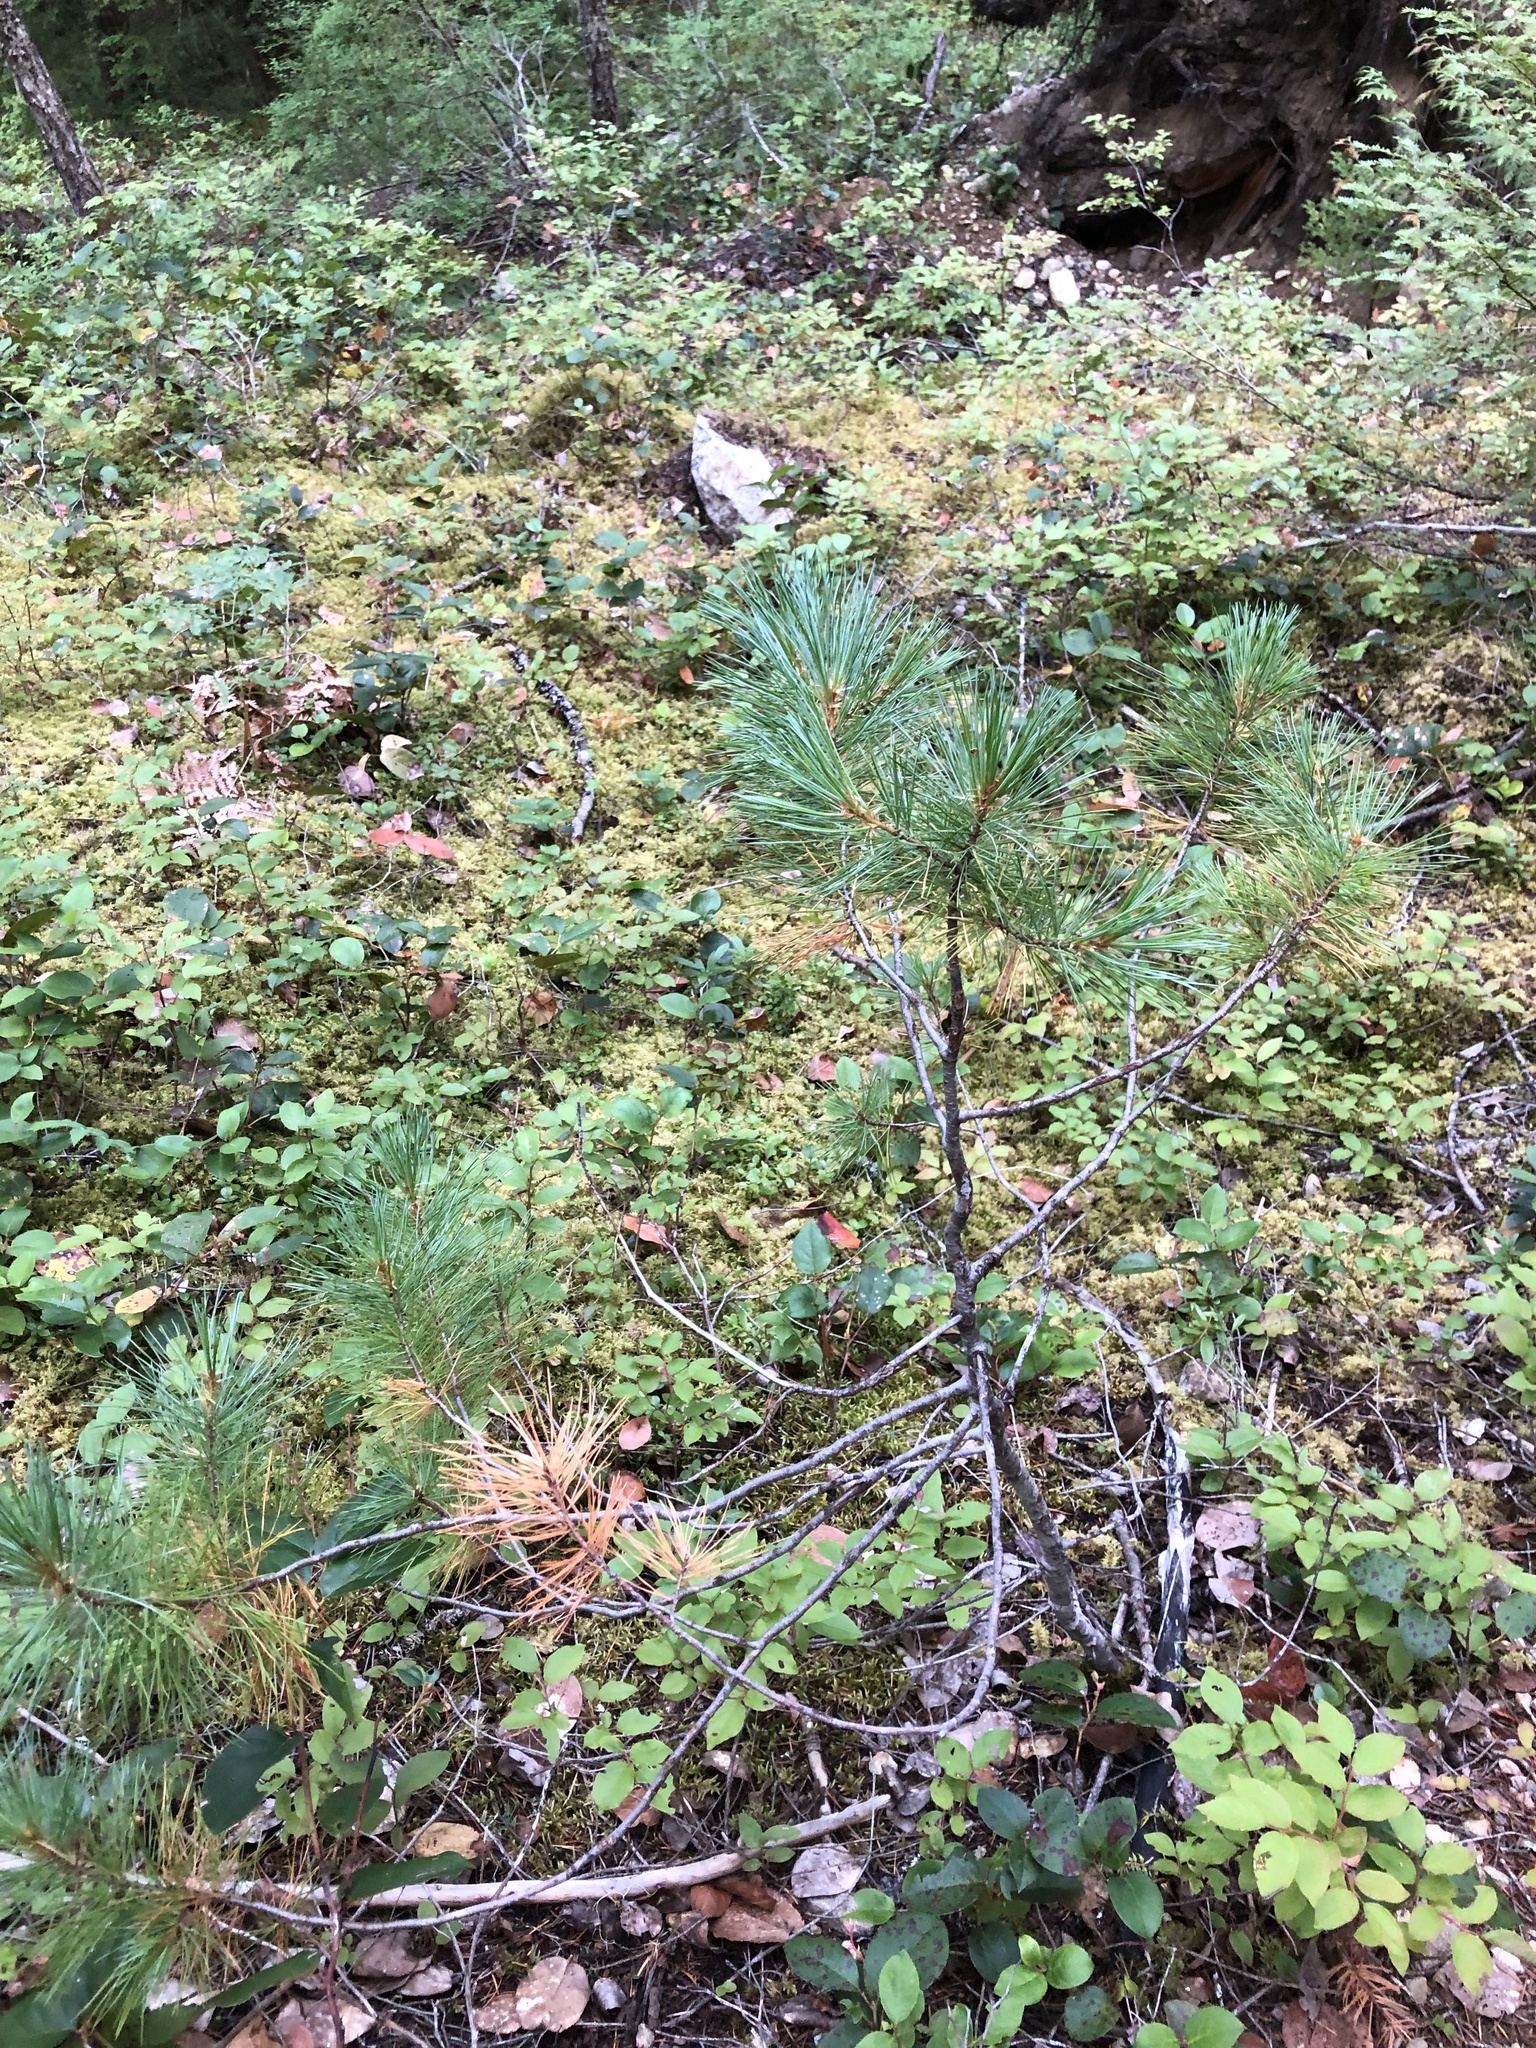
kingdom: Plantae
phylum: Tracheophyta
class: Pinopsida
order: Pinales
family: Pinaceae
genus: Pinus
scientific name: Pinus monticola
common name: Western white pine
